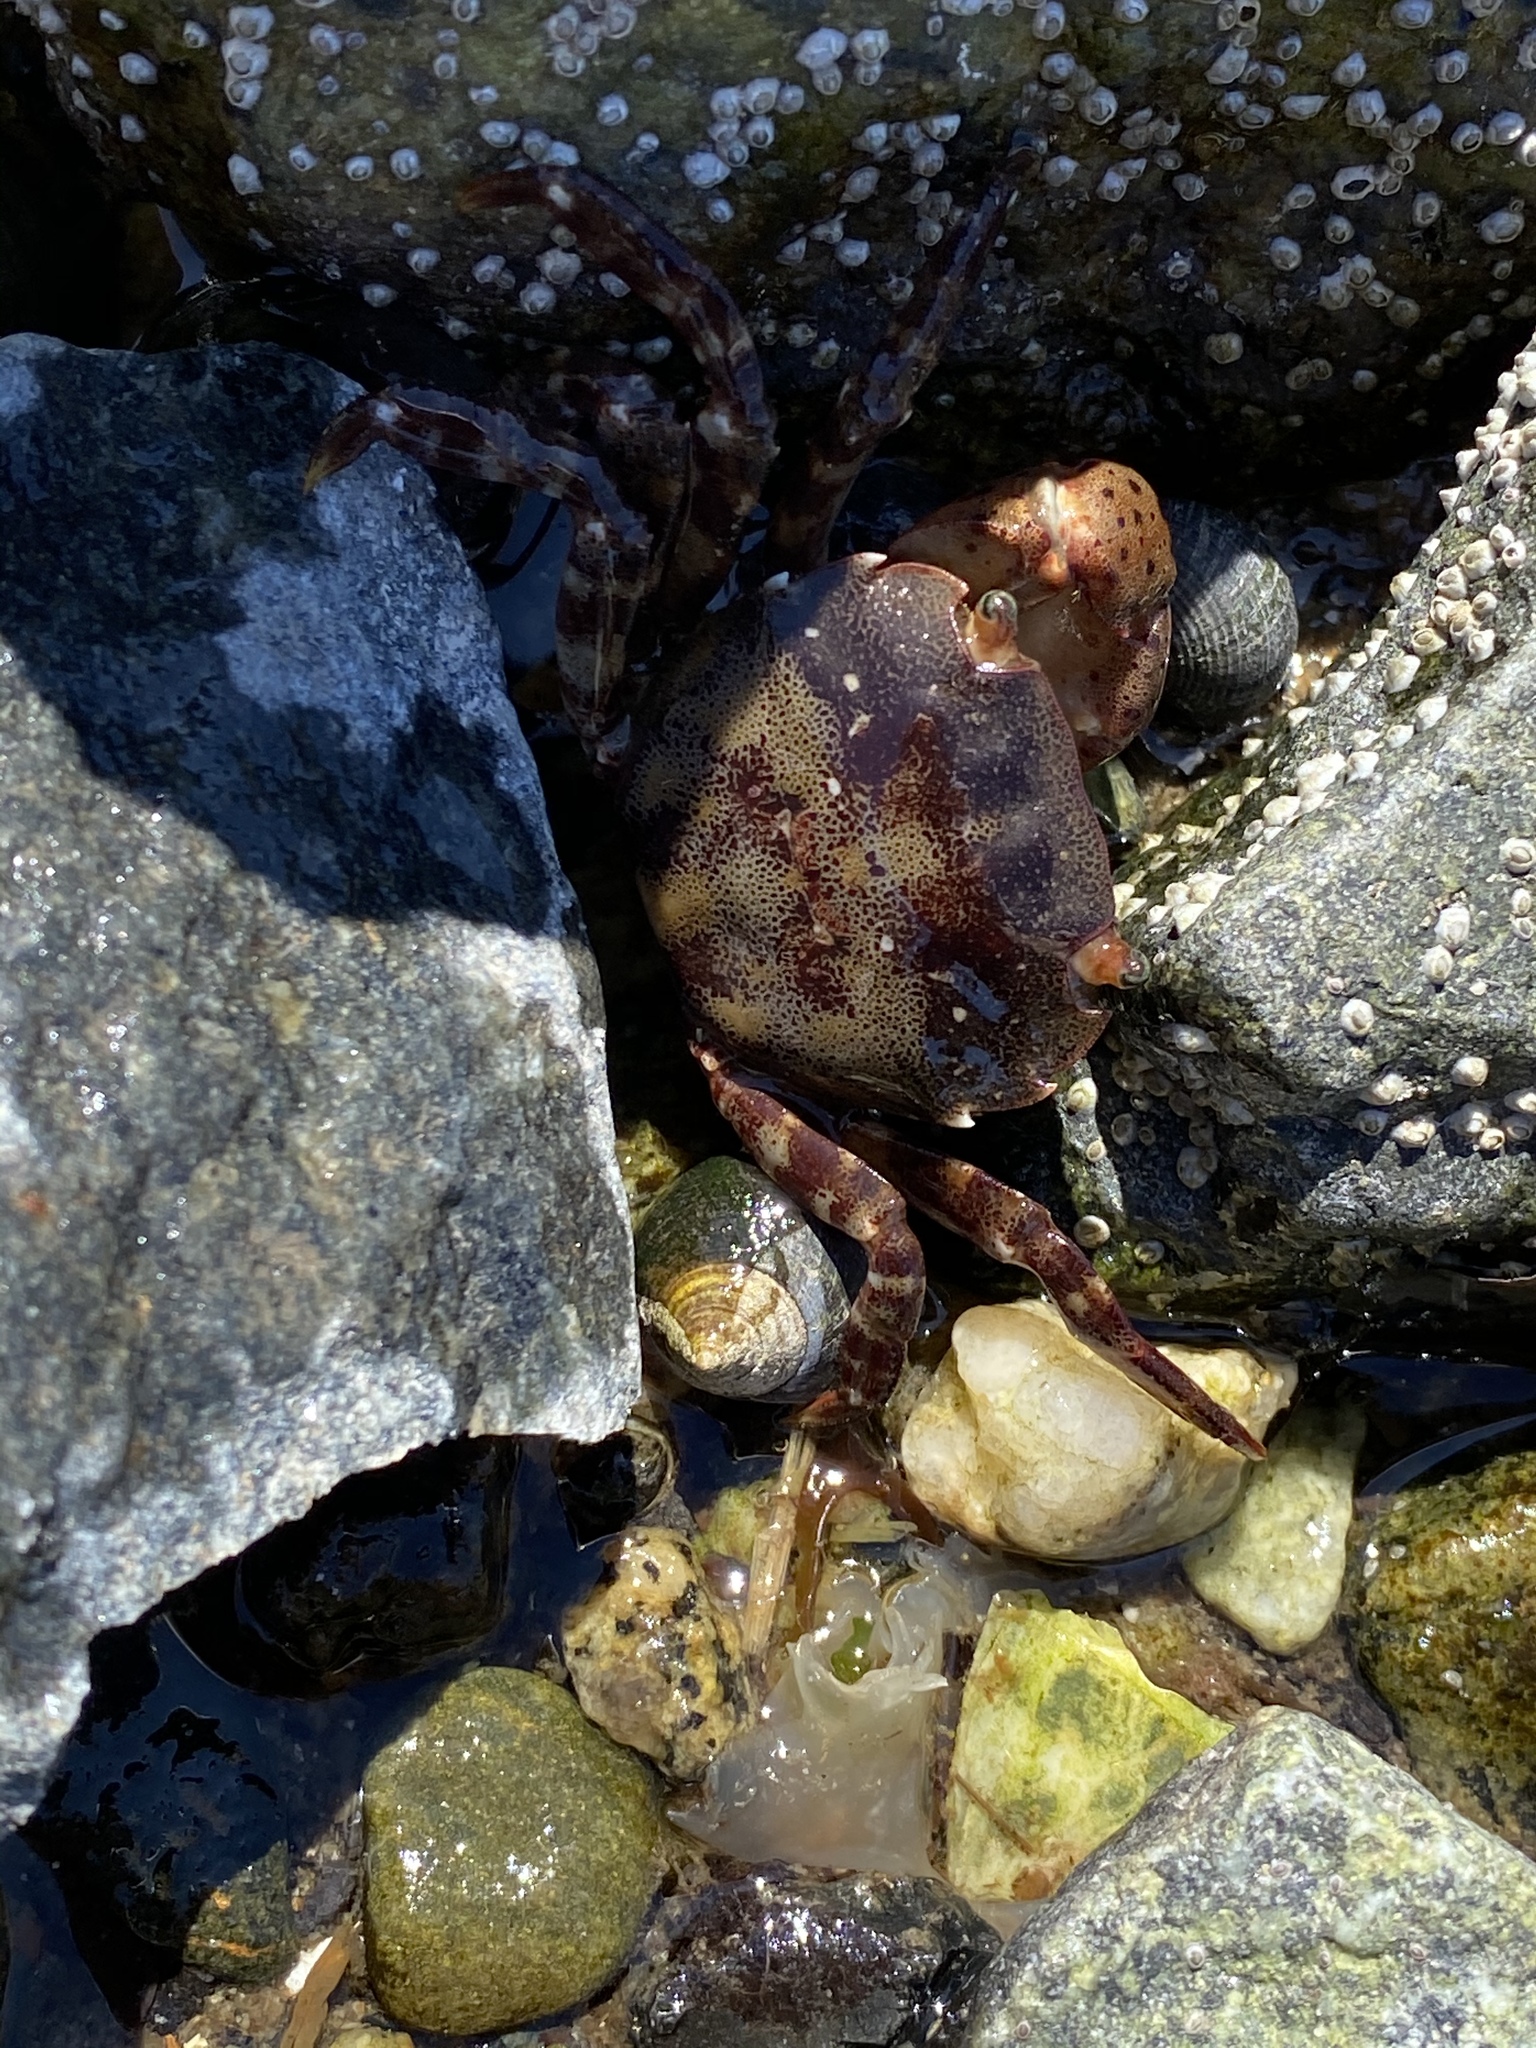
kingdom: Animalia
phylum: Arthropoda
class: Malacostraca
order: Decapoda
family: Varunidae
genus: Hemigrapsus
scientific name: Hemigrapsus sanguineus
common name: Asian shore crab
